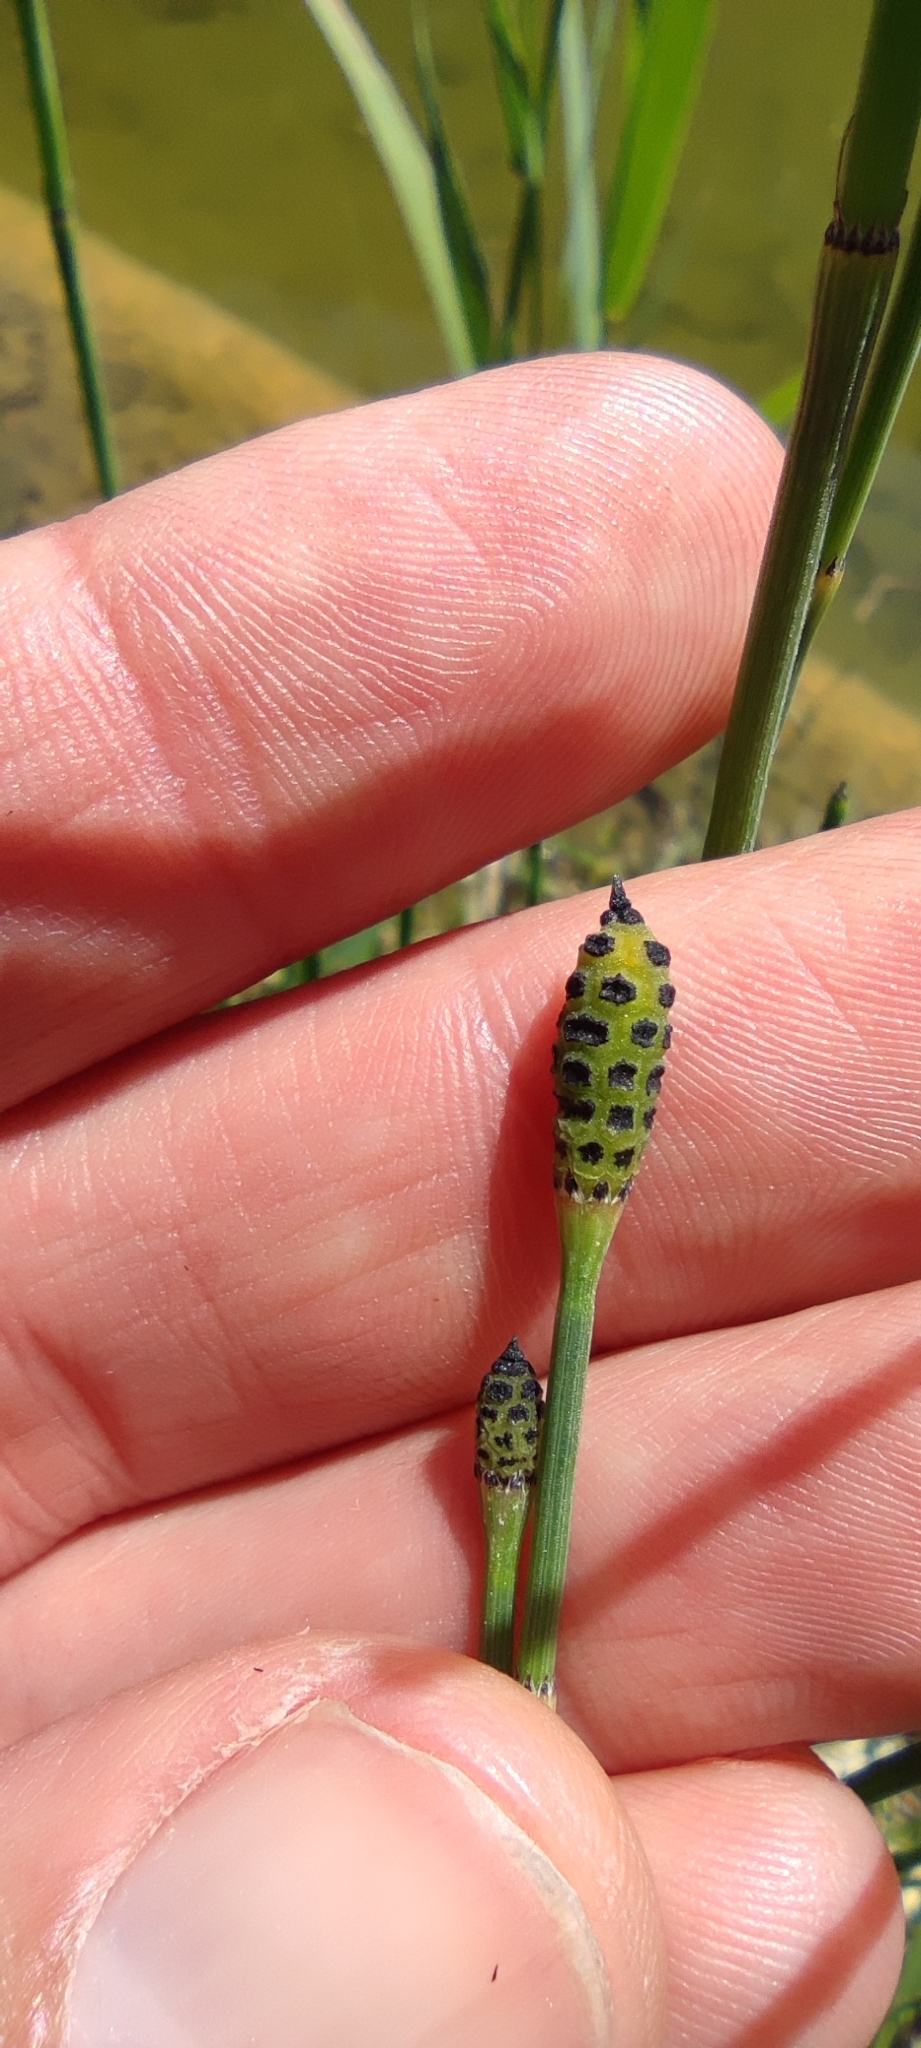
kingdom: Plantae
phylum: Tracheophyta
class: Polypodiopsida
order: Equisetales
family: Equisetaceae
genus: Equisetum
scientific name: Equisetum ramosissimum
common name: Branched horsetail
